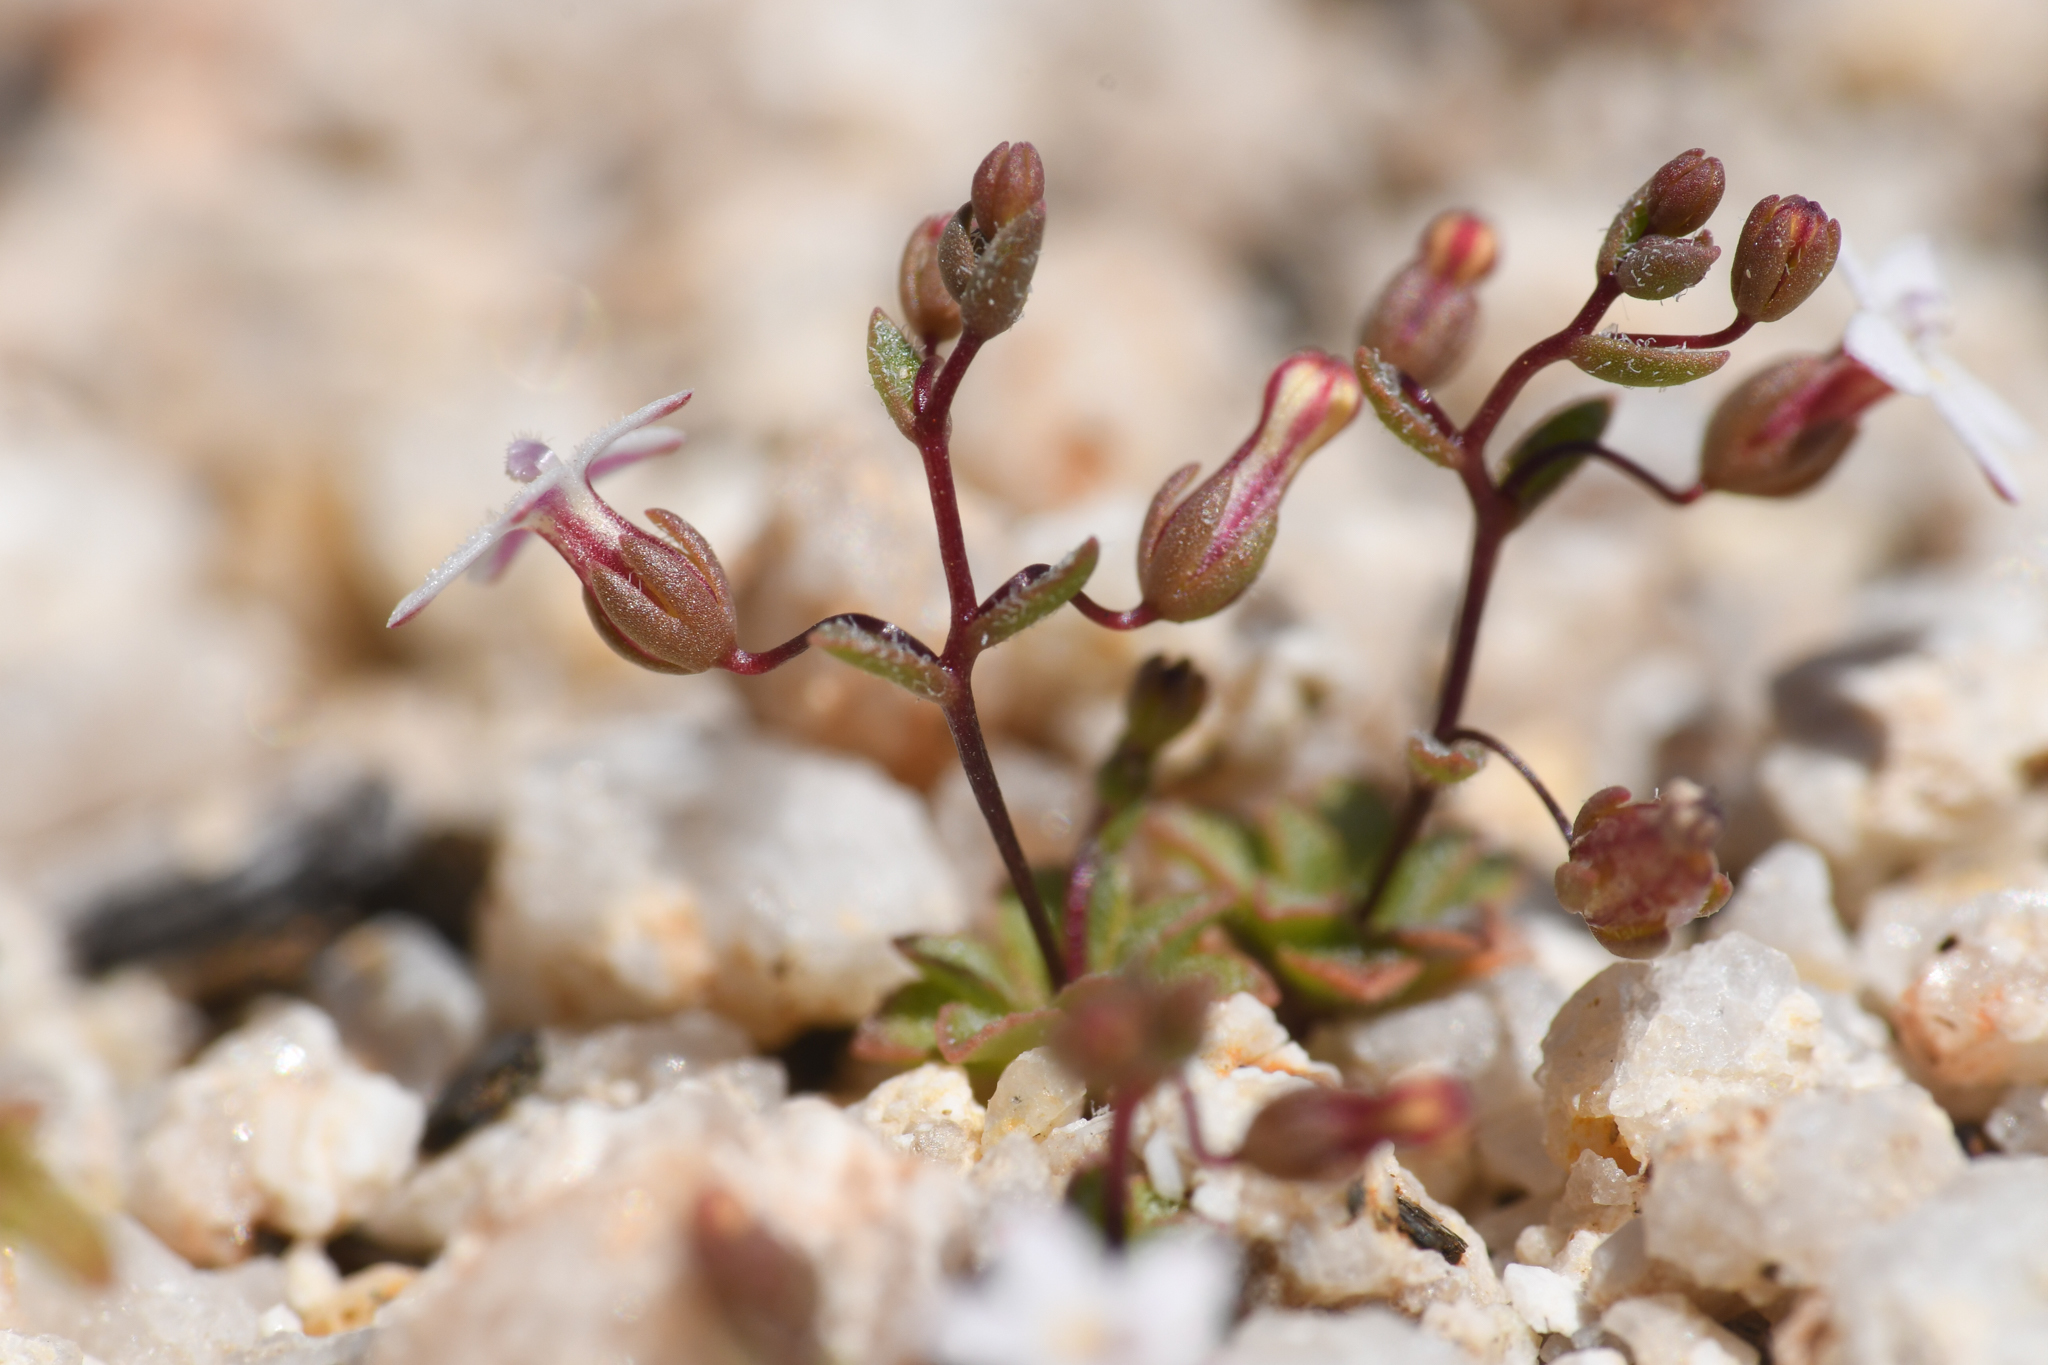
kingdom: Plantae
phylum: Tracheophyta
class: Magnoliopsida
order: Asterales
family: Campanulaceae
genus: Nemacladus
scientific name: Nemacladus breviflorus
